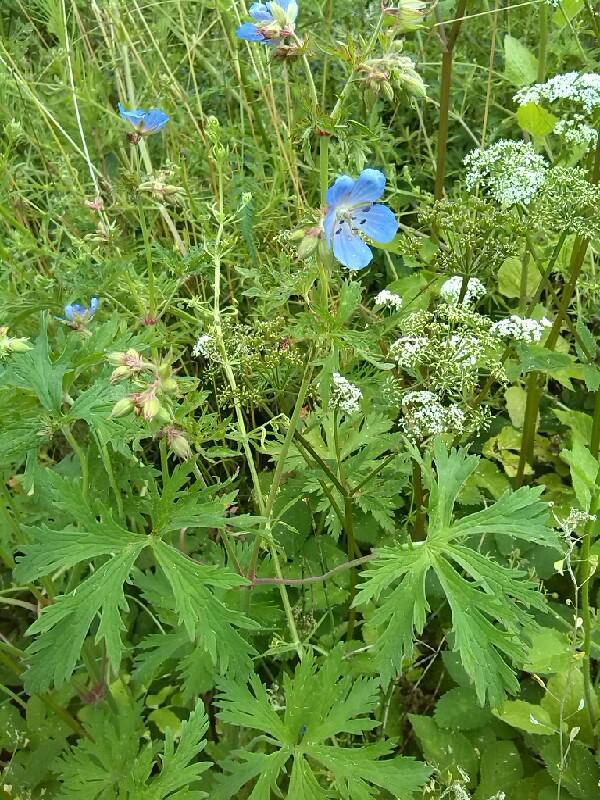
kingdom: Plantae
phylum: Tracheophyta
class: Magnoliopsida
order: Geraniales
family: Geraniaceae
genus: Geranium
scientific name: Geranium pratense
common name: Meadow crane's-bill
